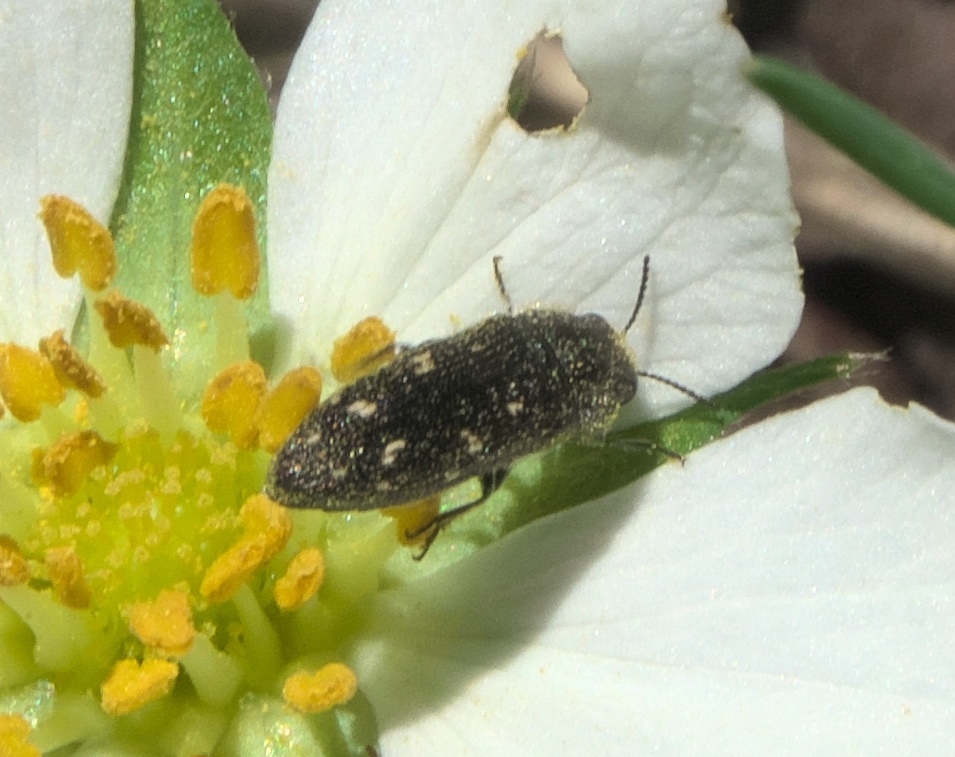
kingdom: Animalia
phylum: Arthropoda
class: Insecta
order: Coleoptera
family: Buprestidae
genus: Acmaeodera
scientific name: Acmaeodera tubulus
